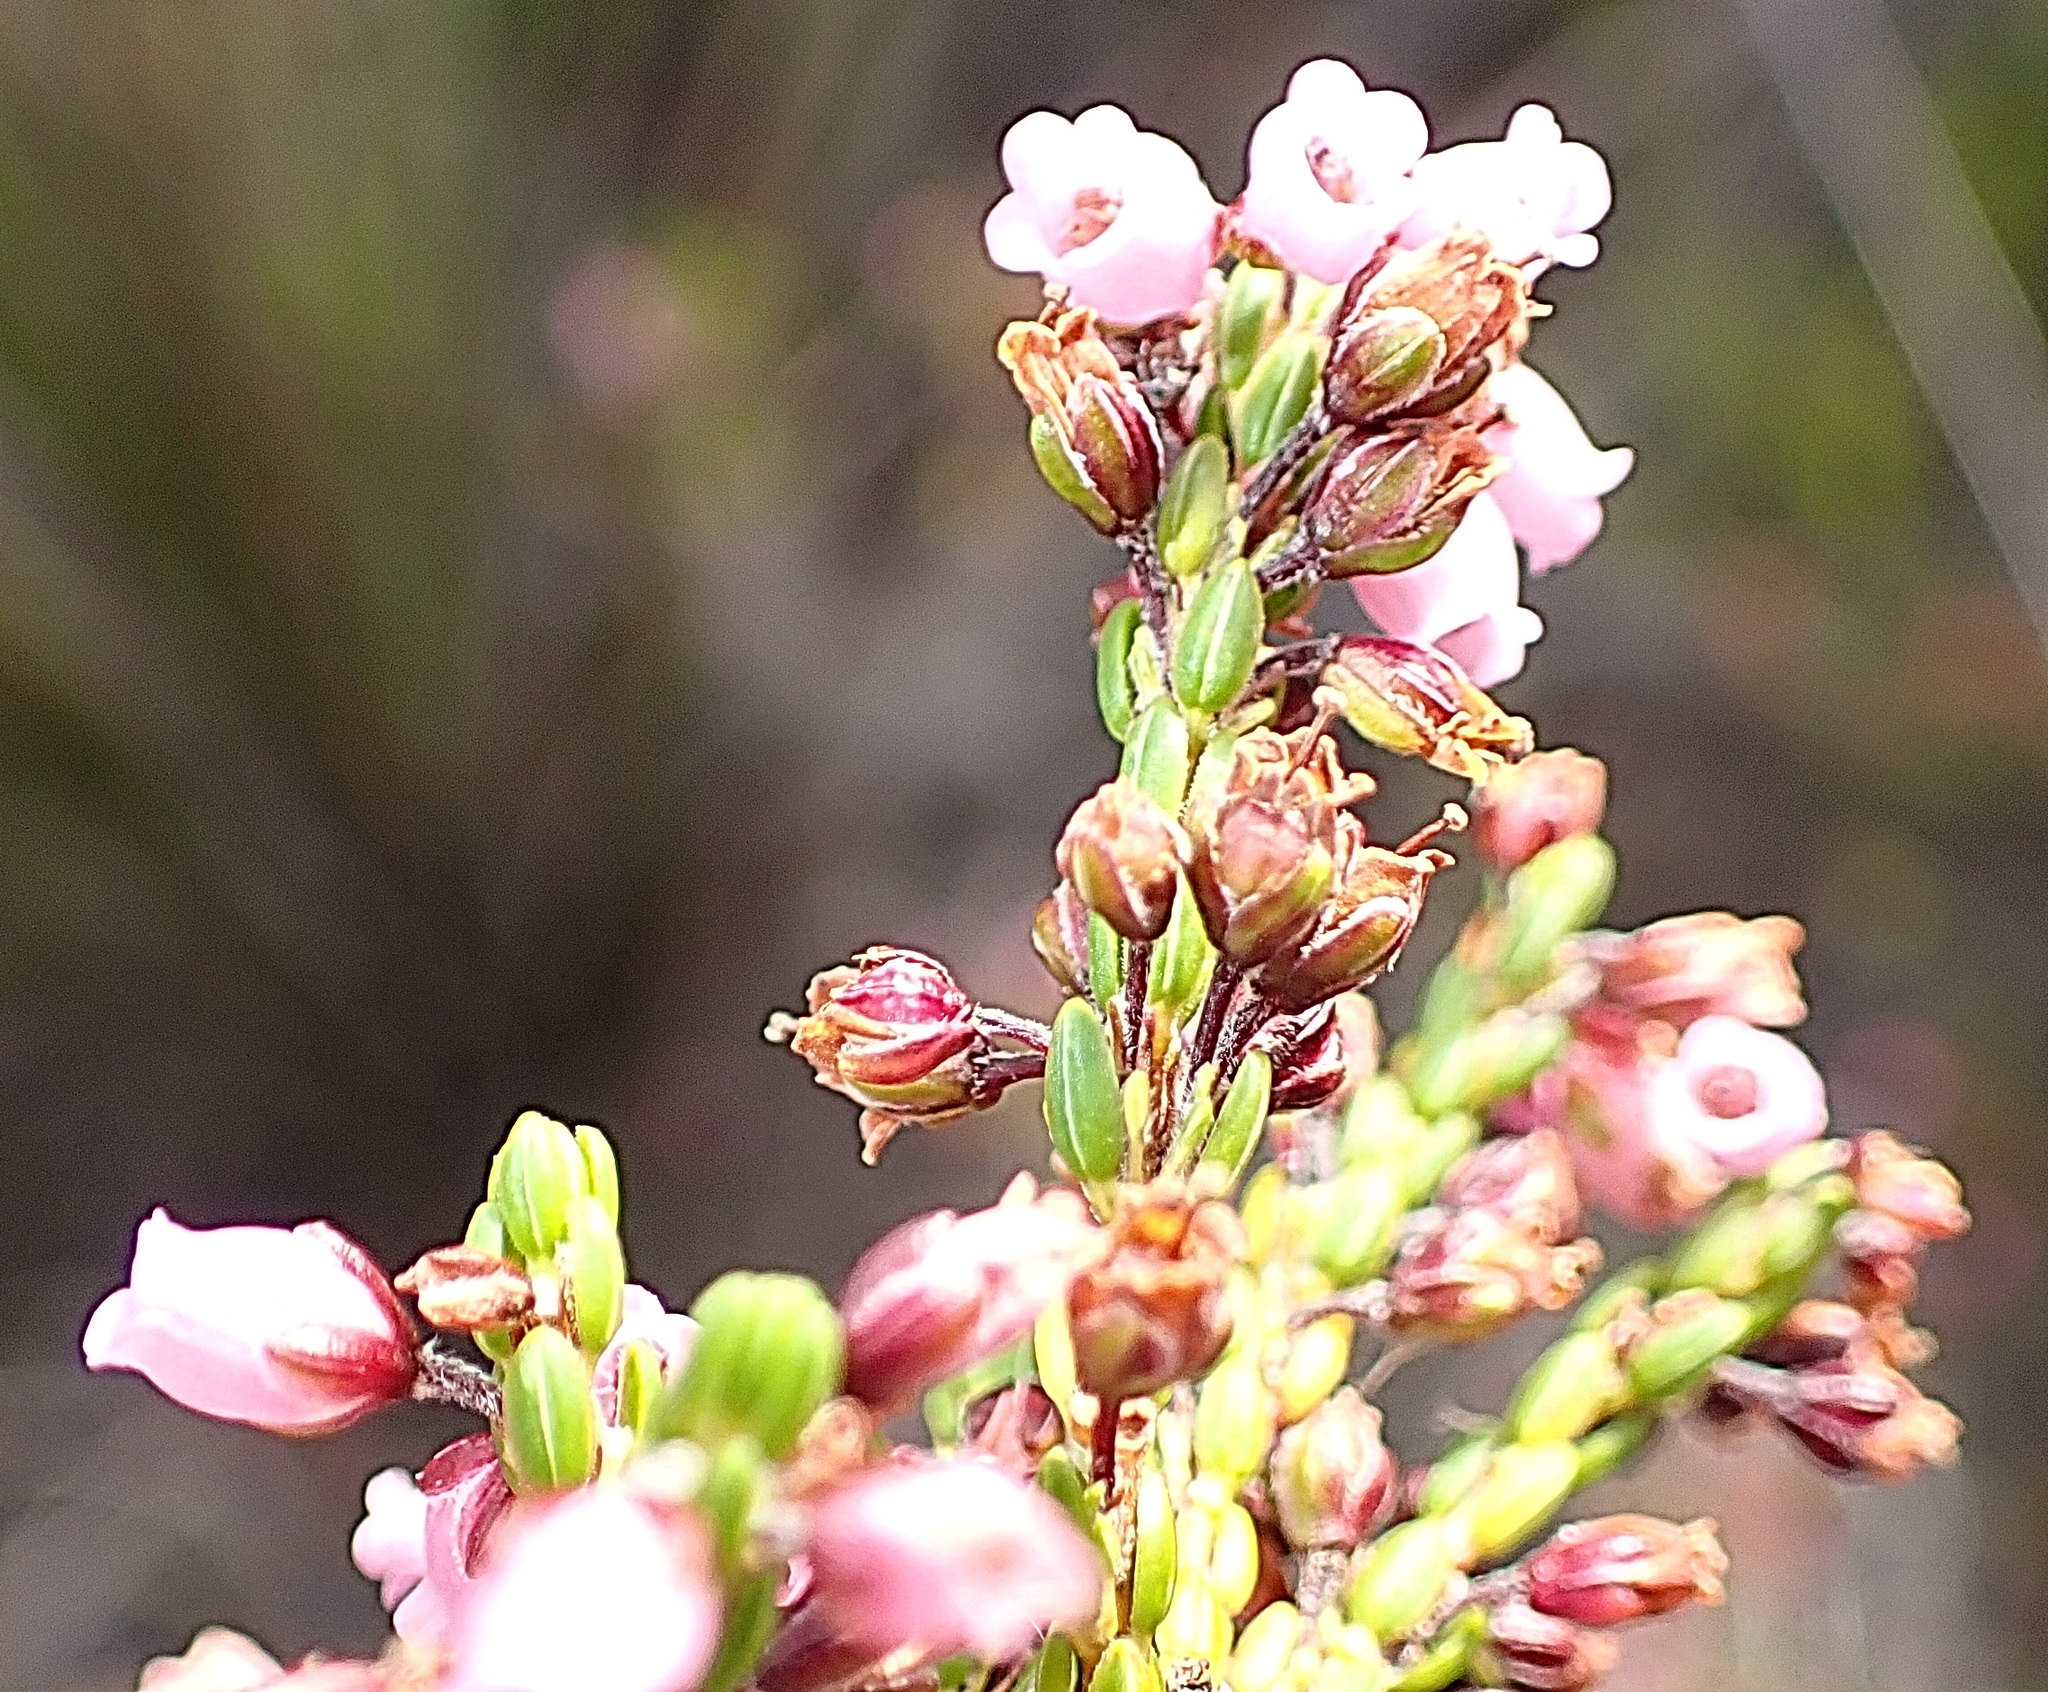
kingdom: Plantae
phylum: Tracheophyta
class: Magnoliopsida
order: Ericales
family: Ericaceae
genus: Erica
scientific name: Erica pulchella
